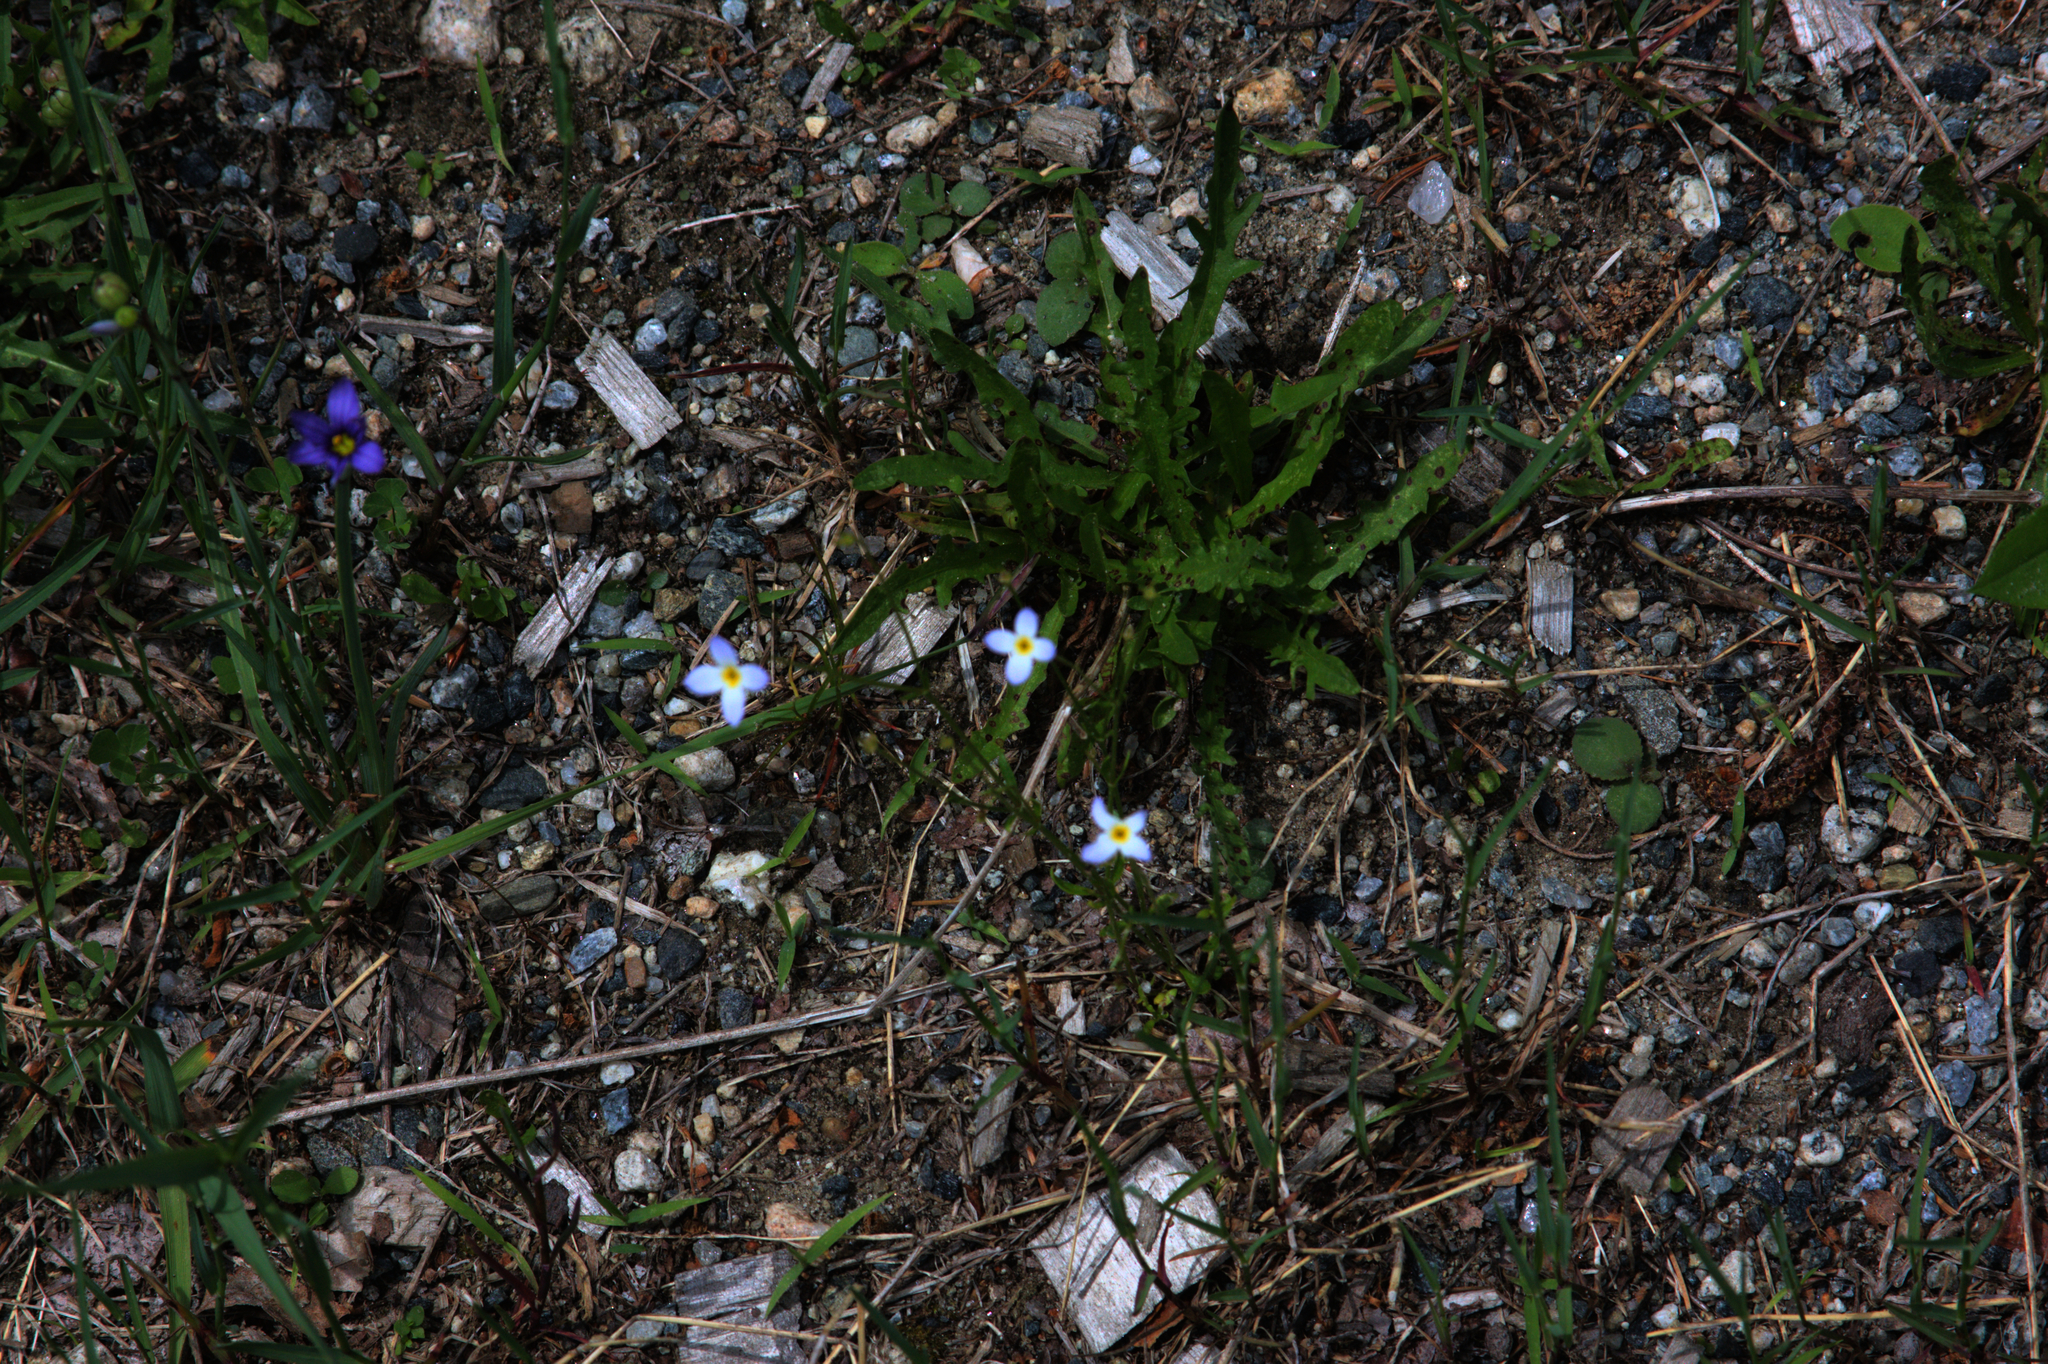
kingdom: Plantae
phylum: Tracheophyta
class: Magnoliopsida
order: Gentianales
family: Rubiaceae
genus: Houstonia
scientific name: Houstonia caerulea
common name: Bluets
